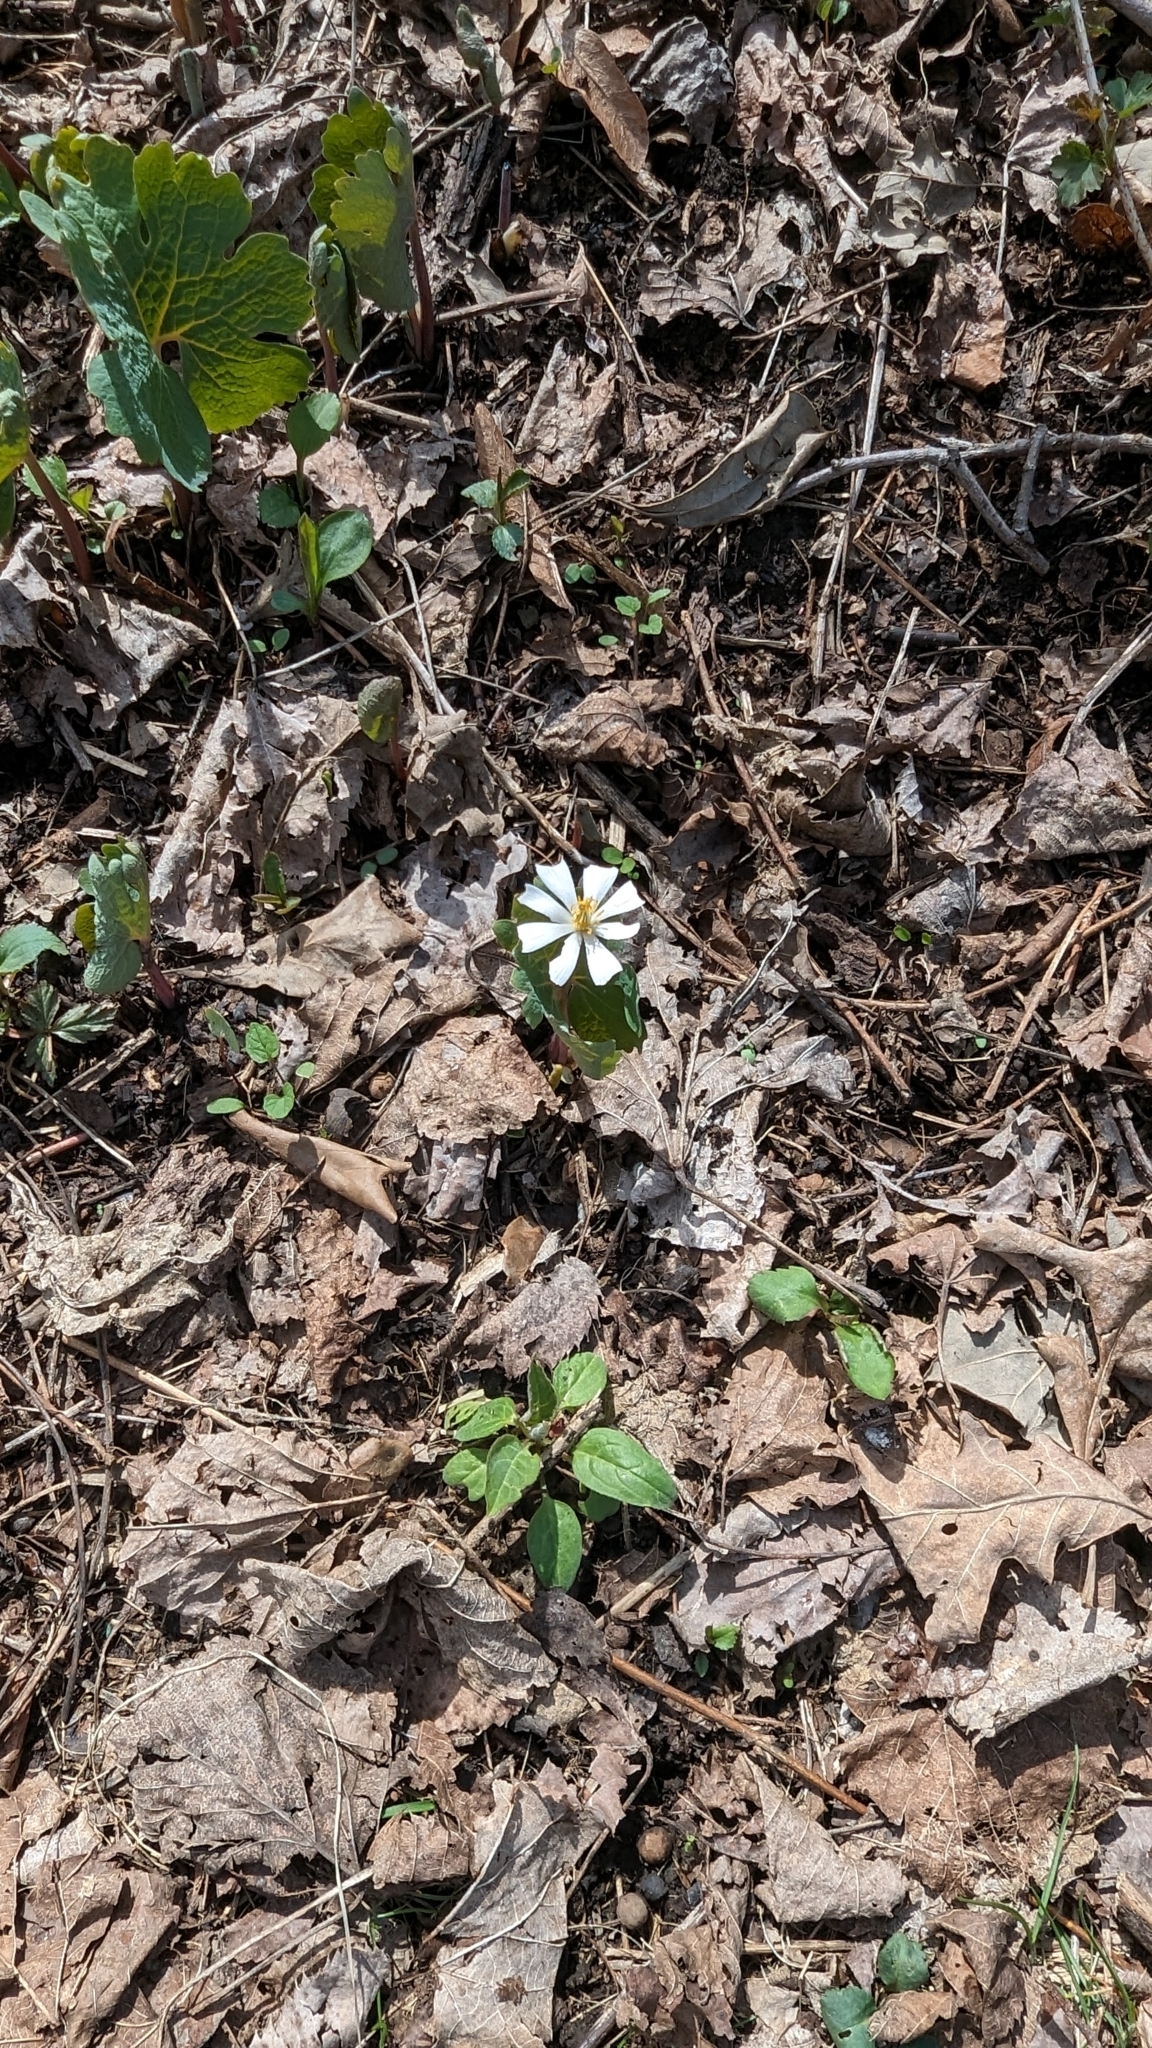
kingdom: Plantae
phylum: Tracheophyta
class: Magnoliopsida
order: Ranunculales
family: Papaveraceae
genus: Sanguinaria
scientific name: Sanguinaria canadensis
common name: Bloodroot
